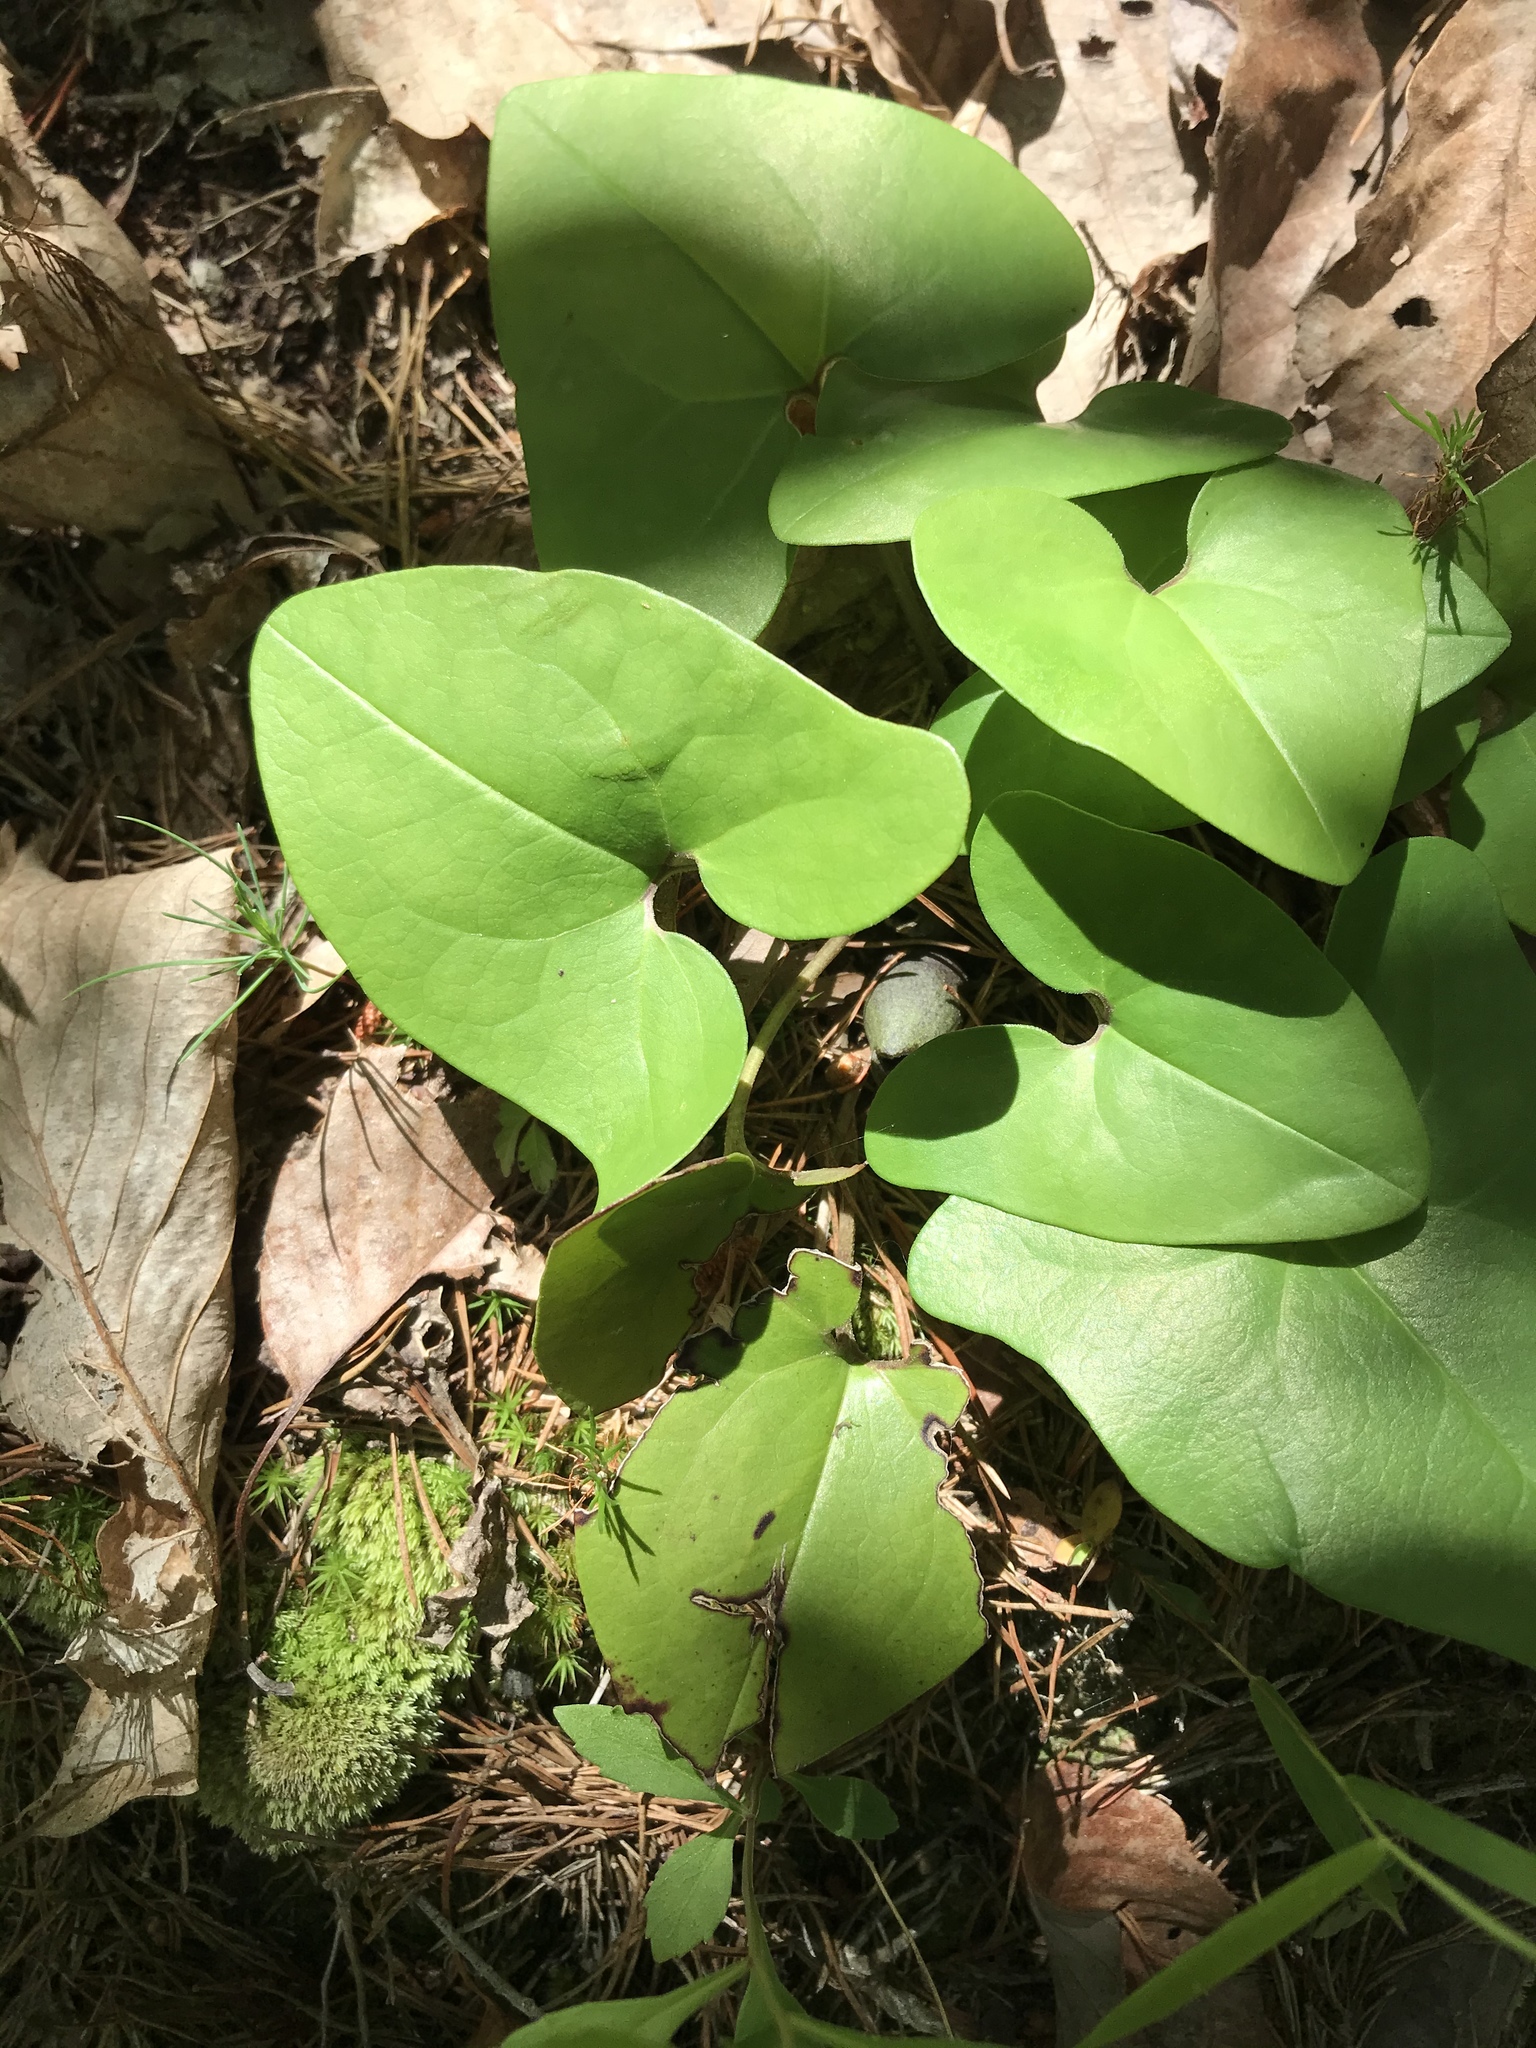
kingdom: Plantae
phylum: Tracheophyta
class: Magnoliopsida
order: Piperales
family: Aristolochiaceae
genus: Hexastylis
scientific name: Hexastylis arifolia
